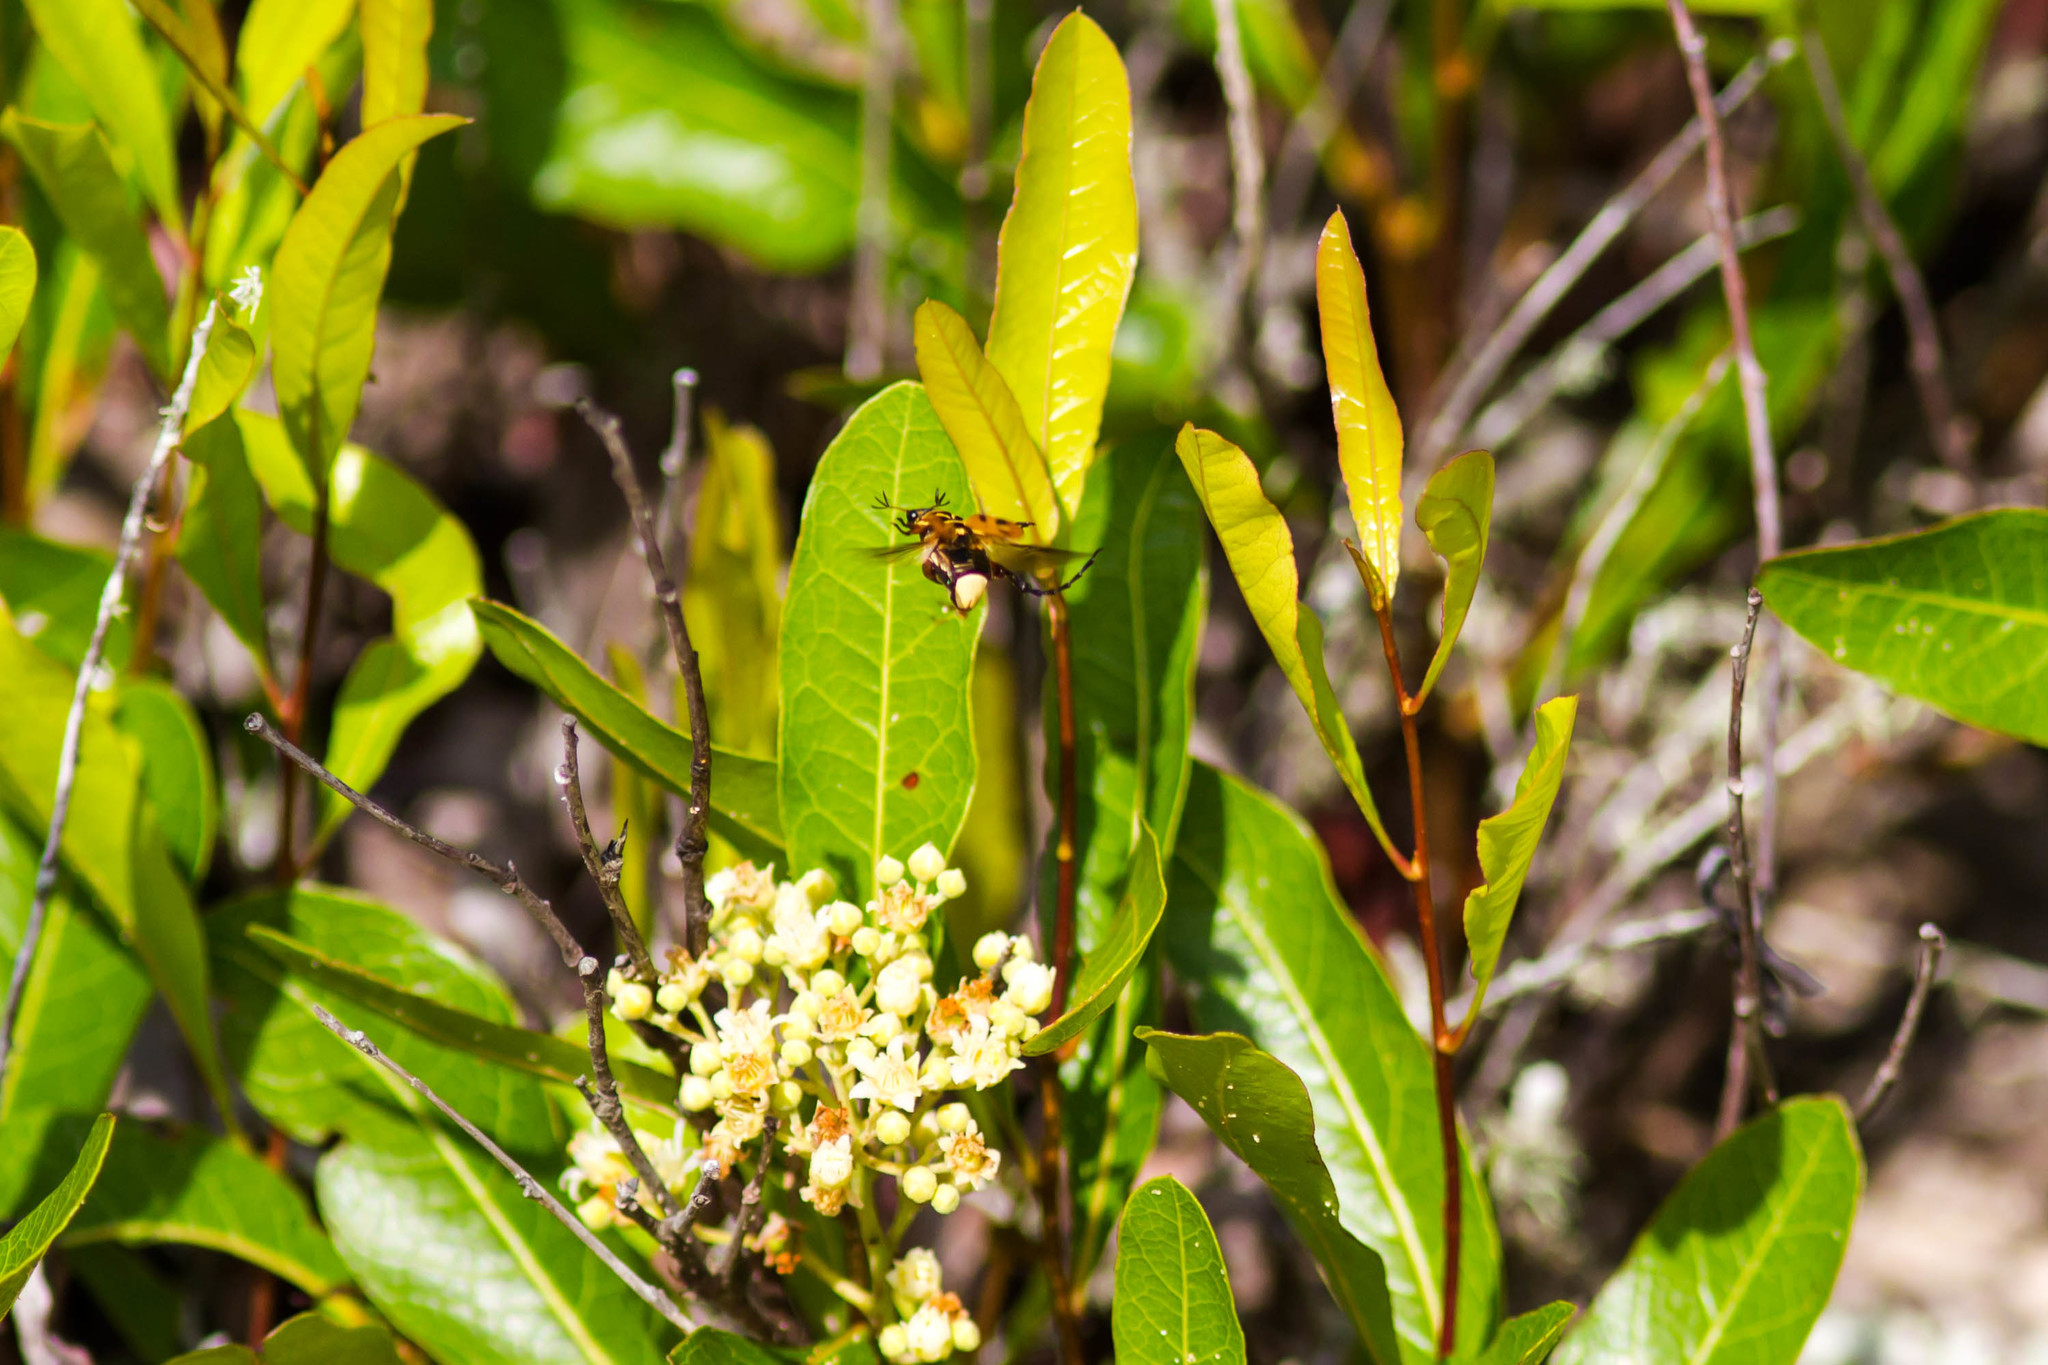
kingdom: Animalia
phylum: Arthropoda
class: Insecta
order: Coleoptera
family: Scarabaeidae
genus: Trigonopeltastes
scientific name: Trigonopeltastes delta
